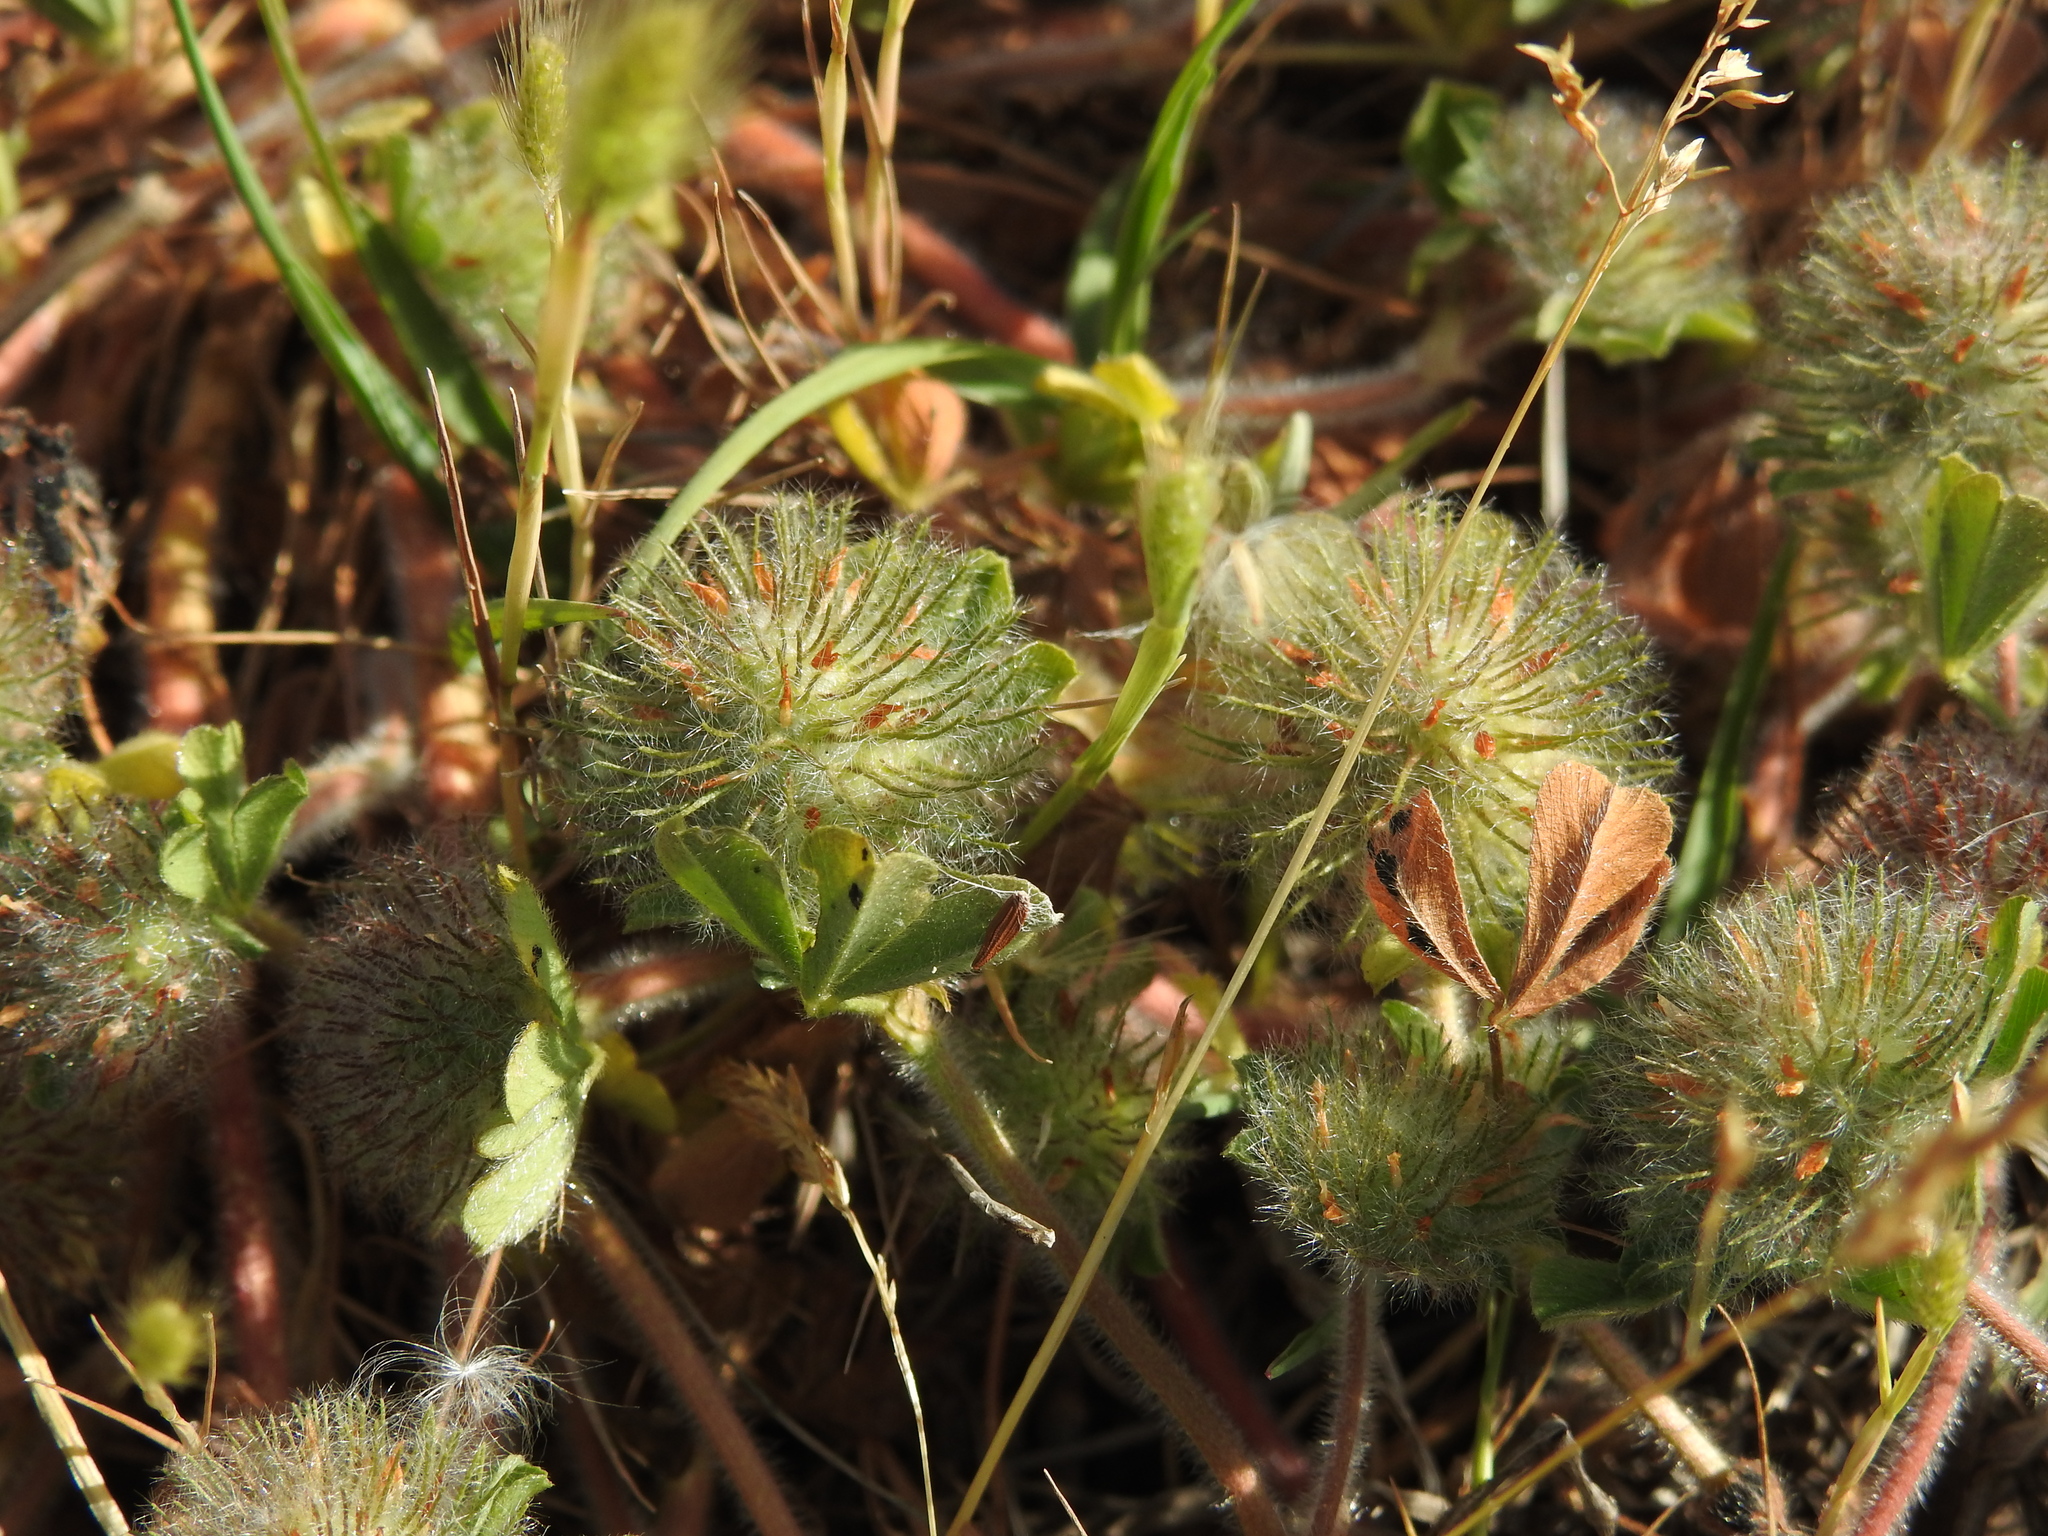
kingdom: Plantae
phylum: Tracheophyta
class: Magnoliopsida
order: Fabales
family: Fabaceae
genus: Trifolium
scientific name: Trifolium cherleri
